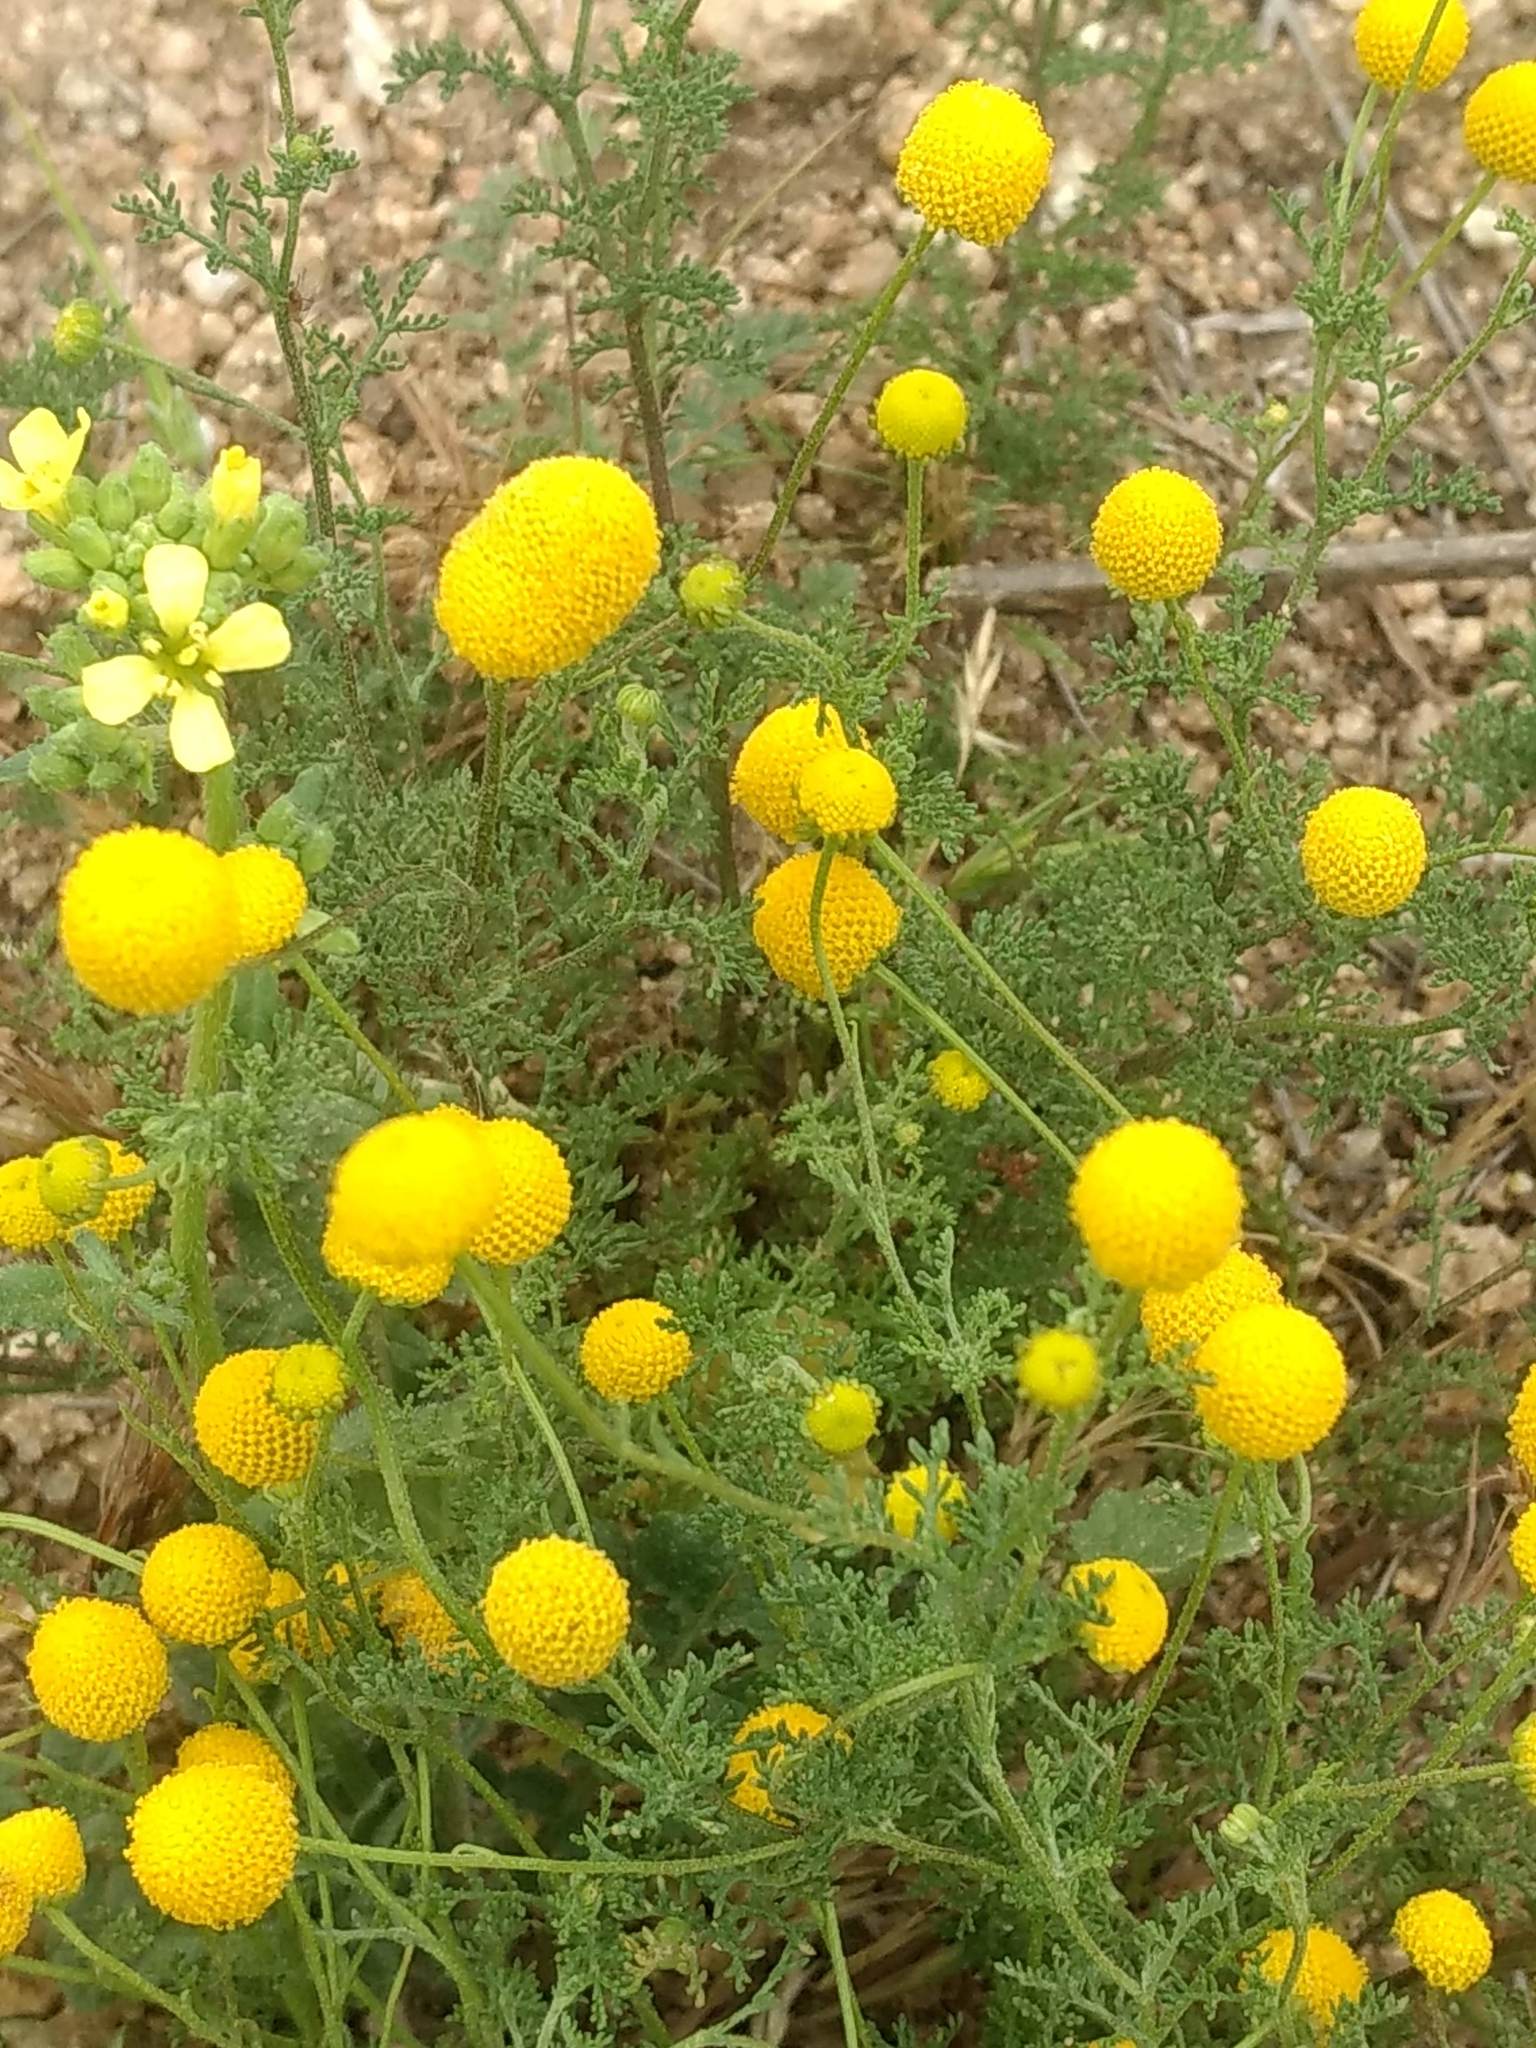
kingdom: Plantae
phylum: Tracheophyta
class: Magnoliopsida
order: Asterales
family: Asteraceae
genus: Oncosiphon
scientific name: Oncosiphon pilulifer
